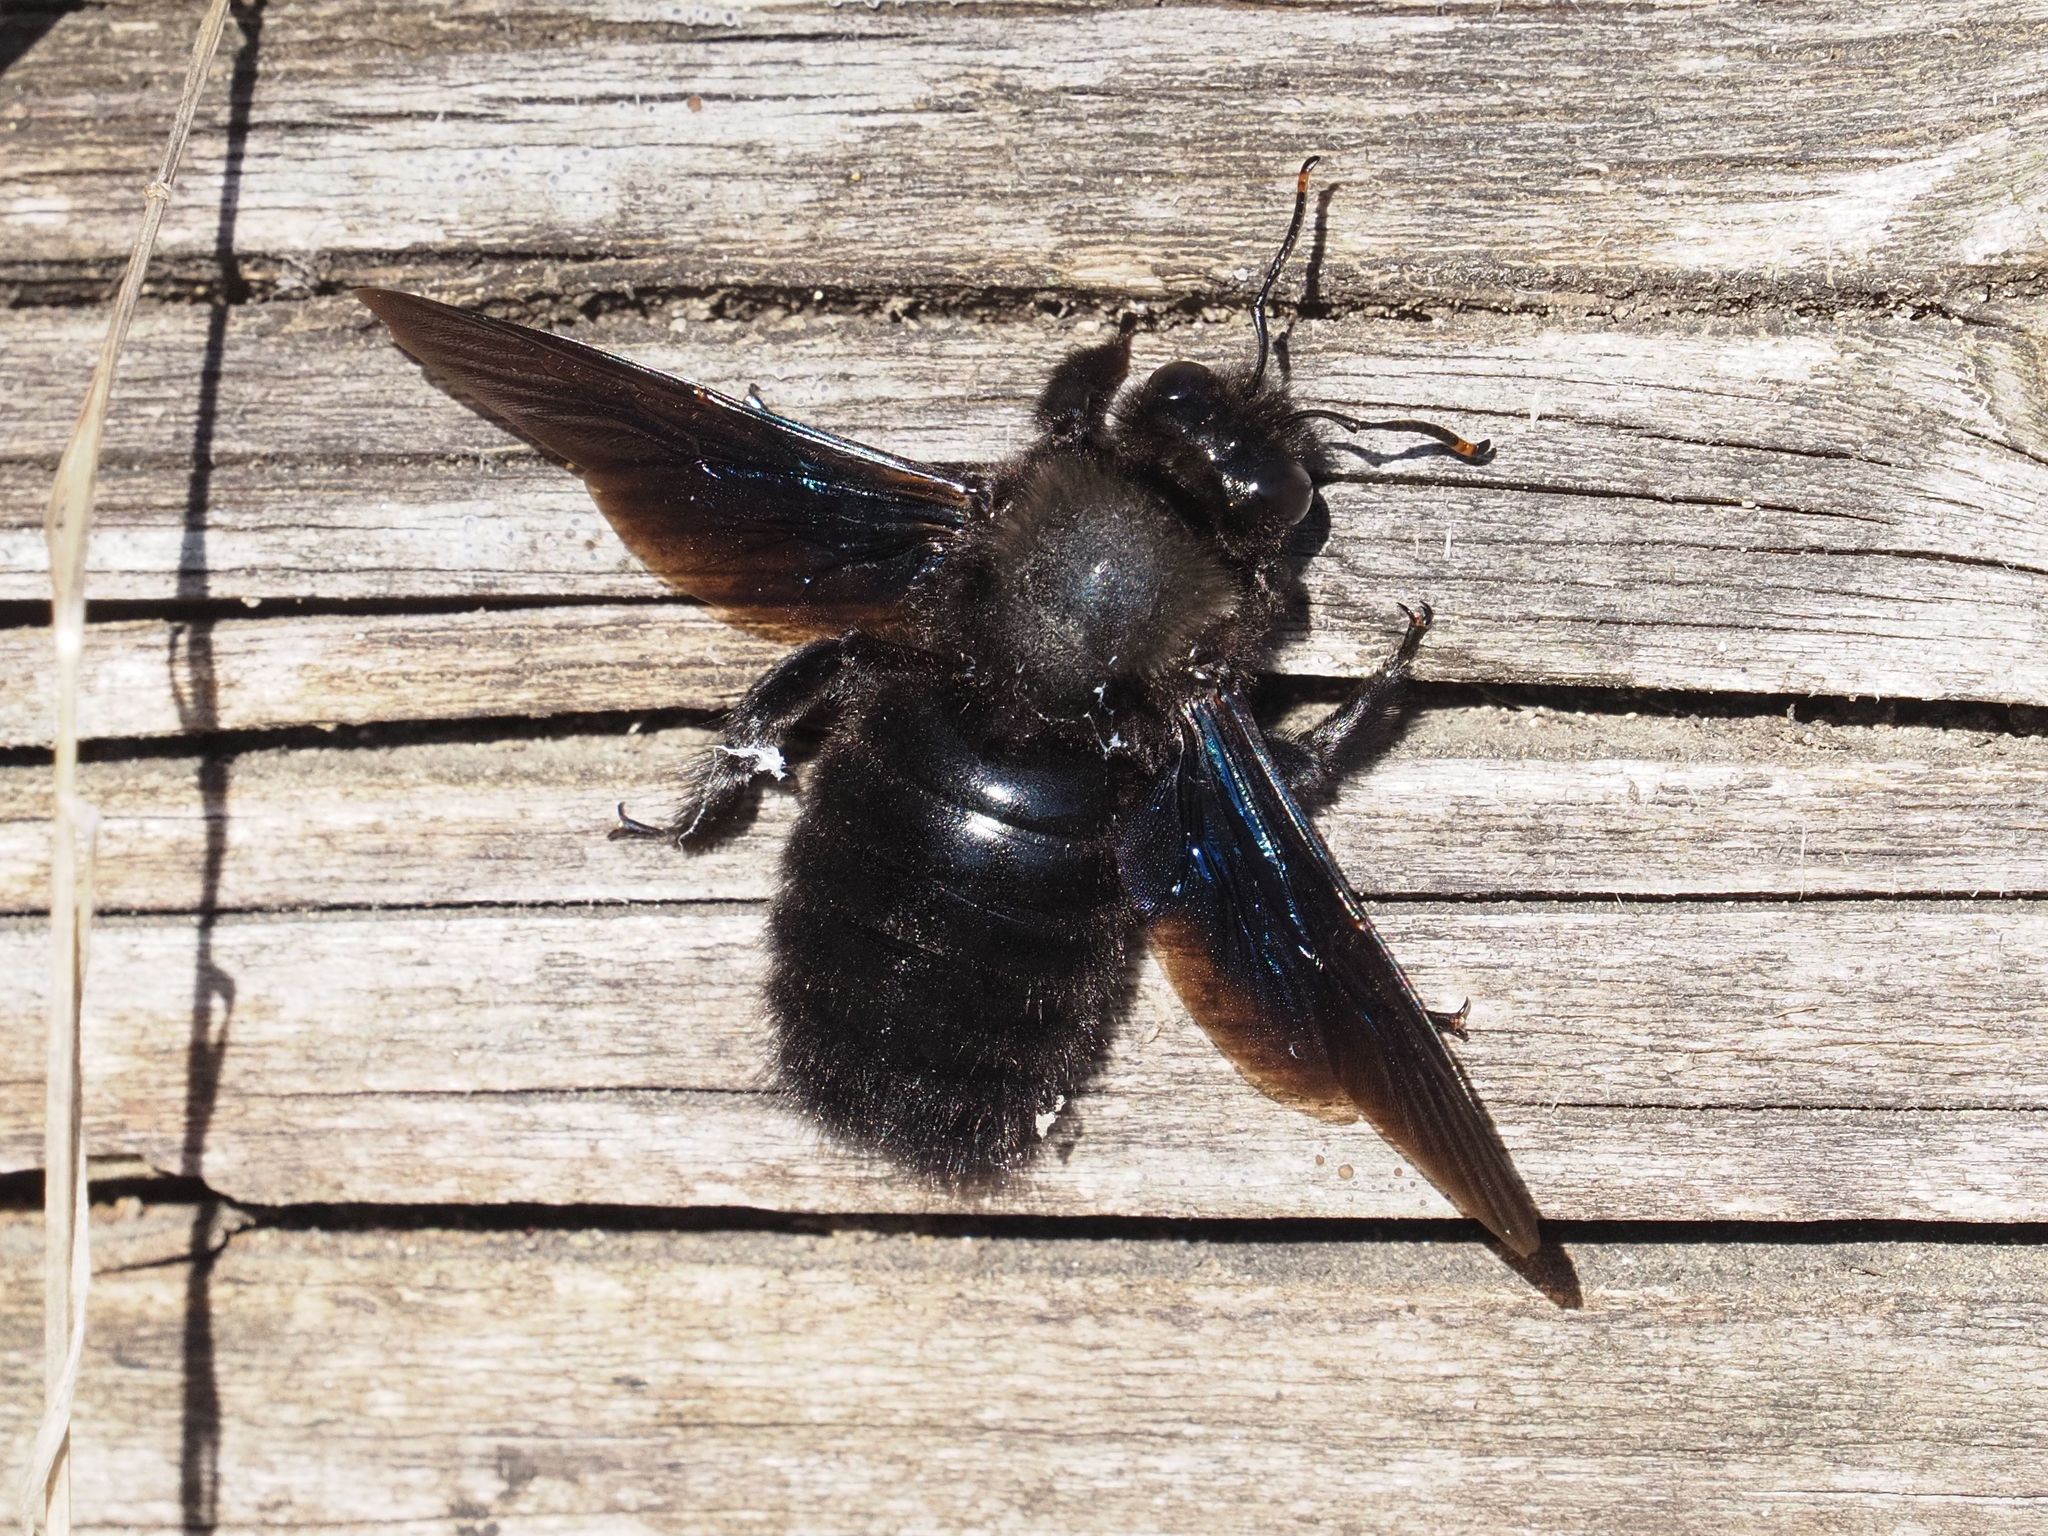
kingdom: Animalia
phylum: Arthropoda
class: Insecta
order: Hymenoptera
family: Apidae
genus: Xylocopa
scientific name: Xylocopa violacea
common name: Violet carpenter bee
